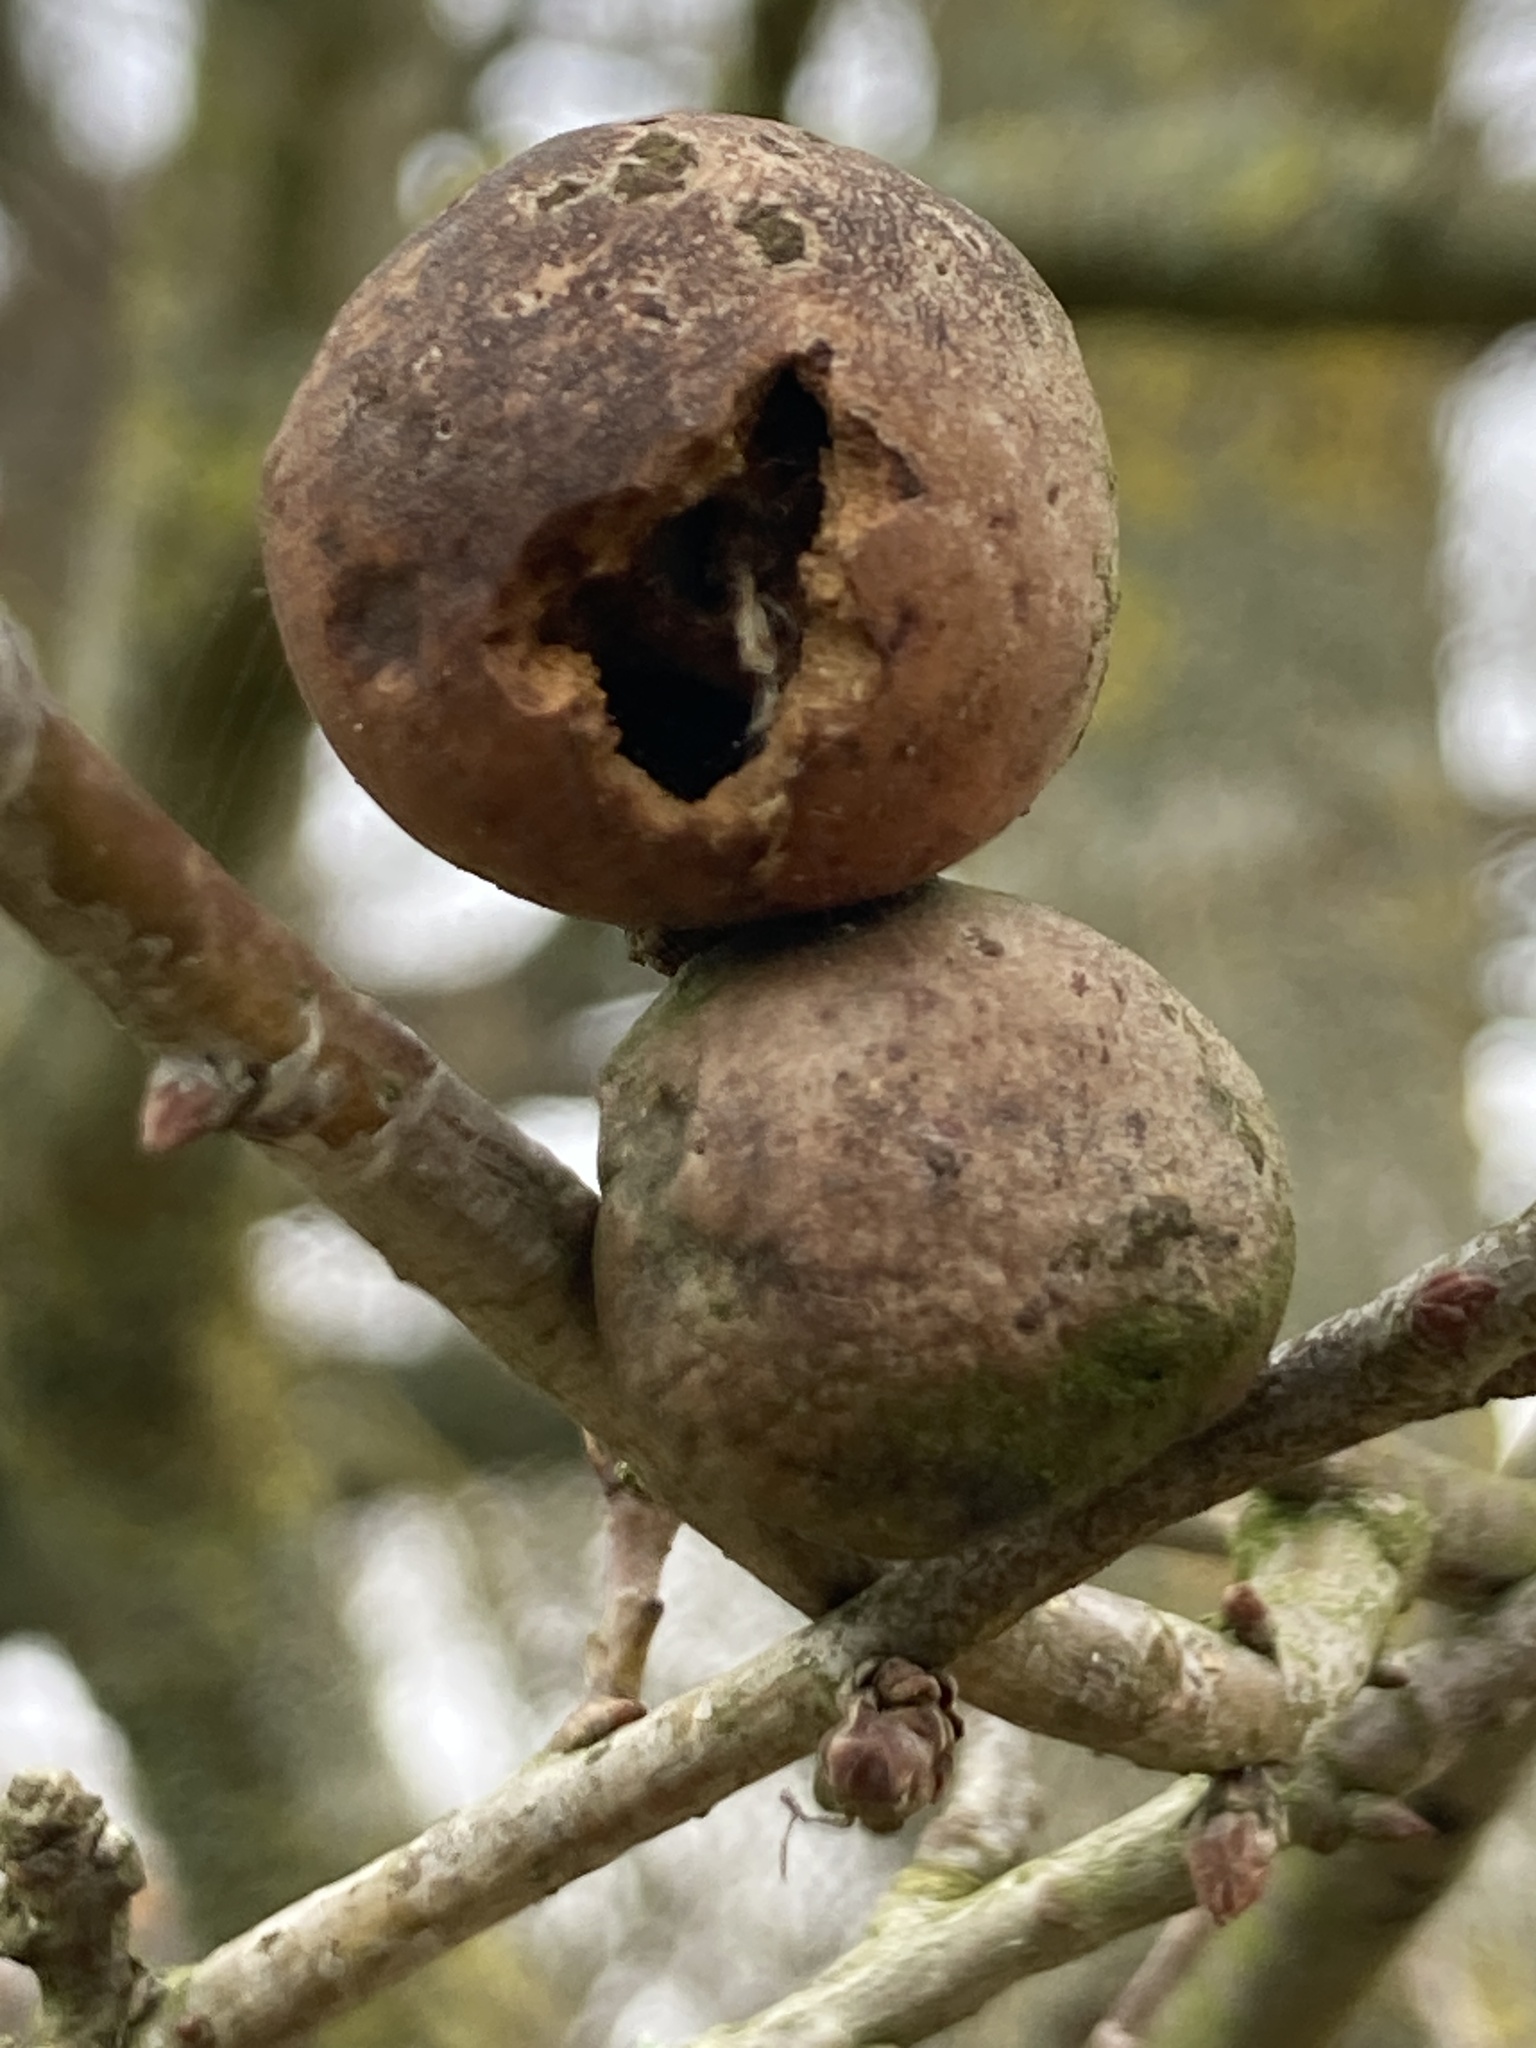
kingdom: Animalia
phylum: Arthropoda
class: Insecta
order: Hymenoptera
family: Cynipidae
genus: Andricus
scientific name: Andricus kollari
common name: Marble gall
